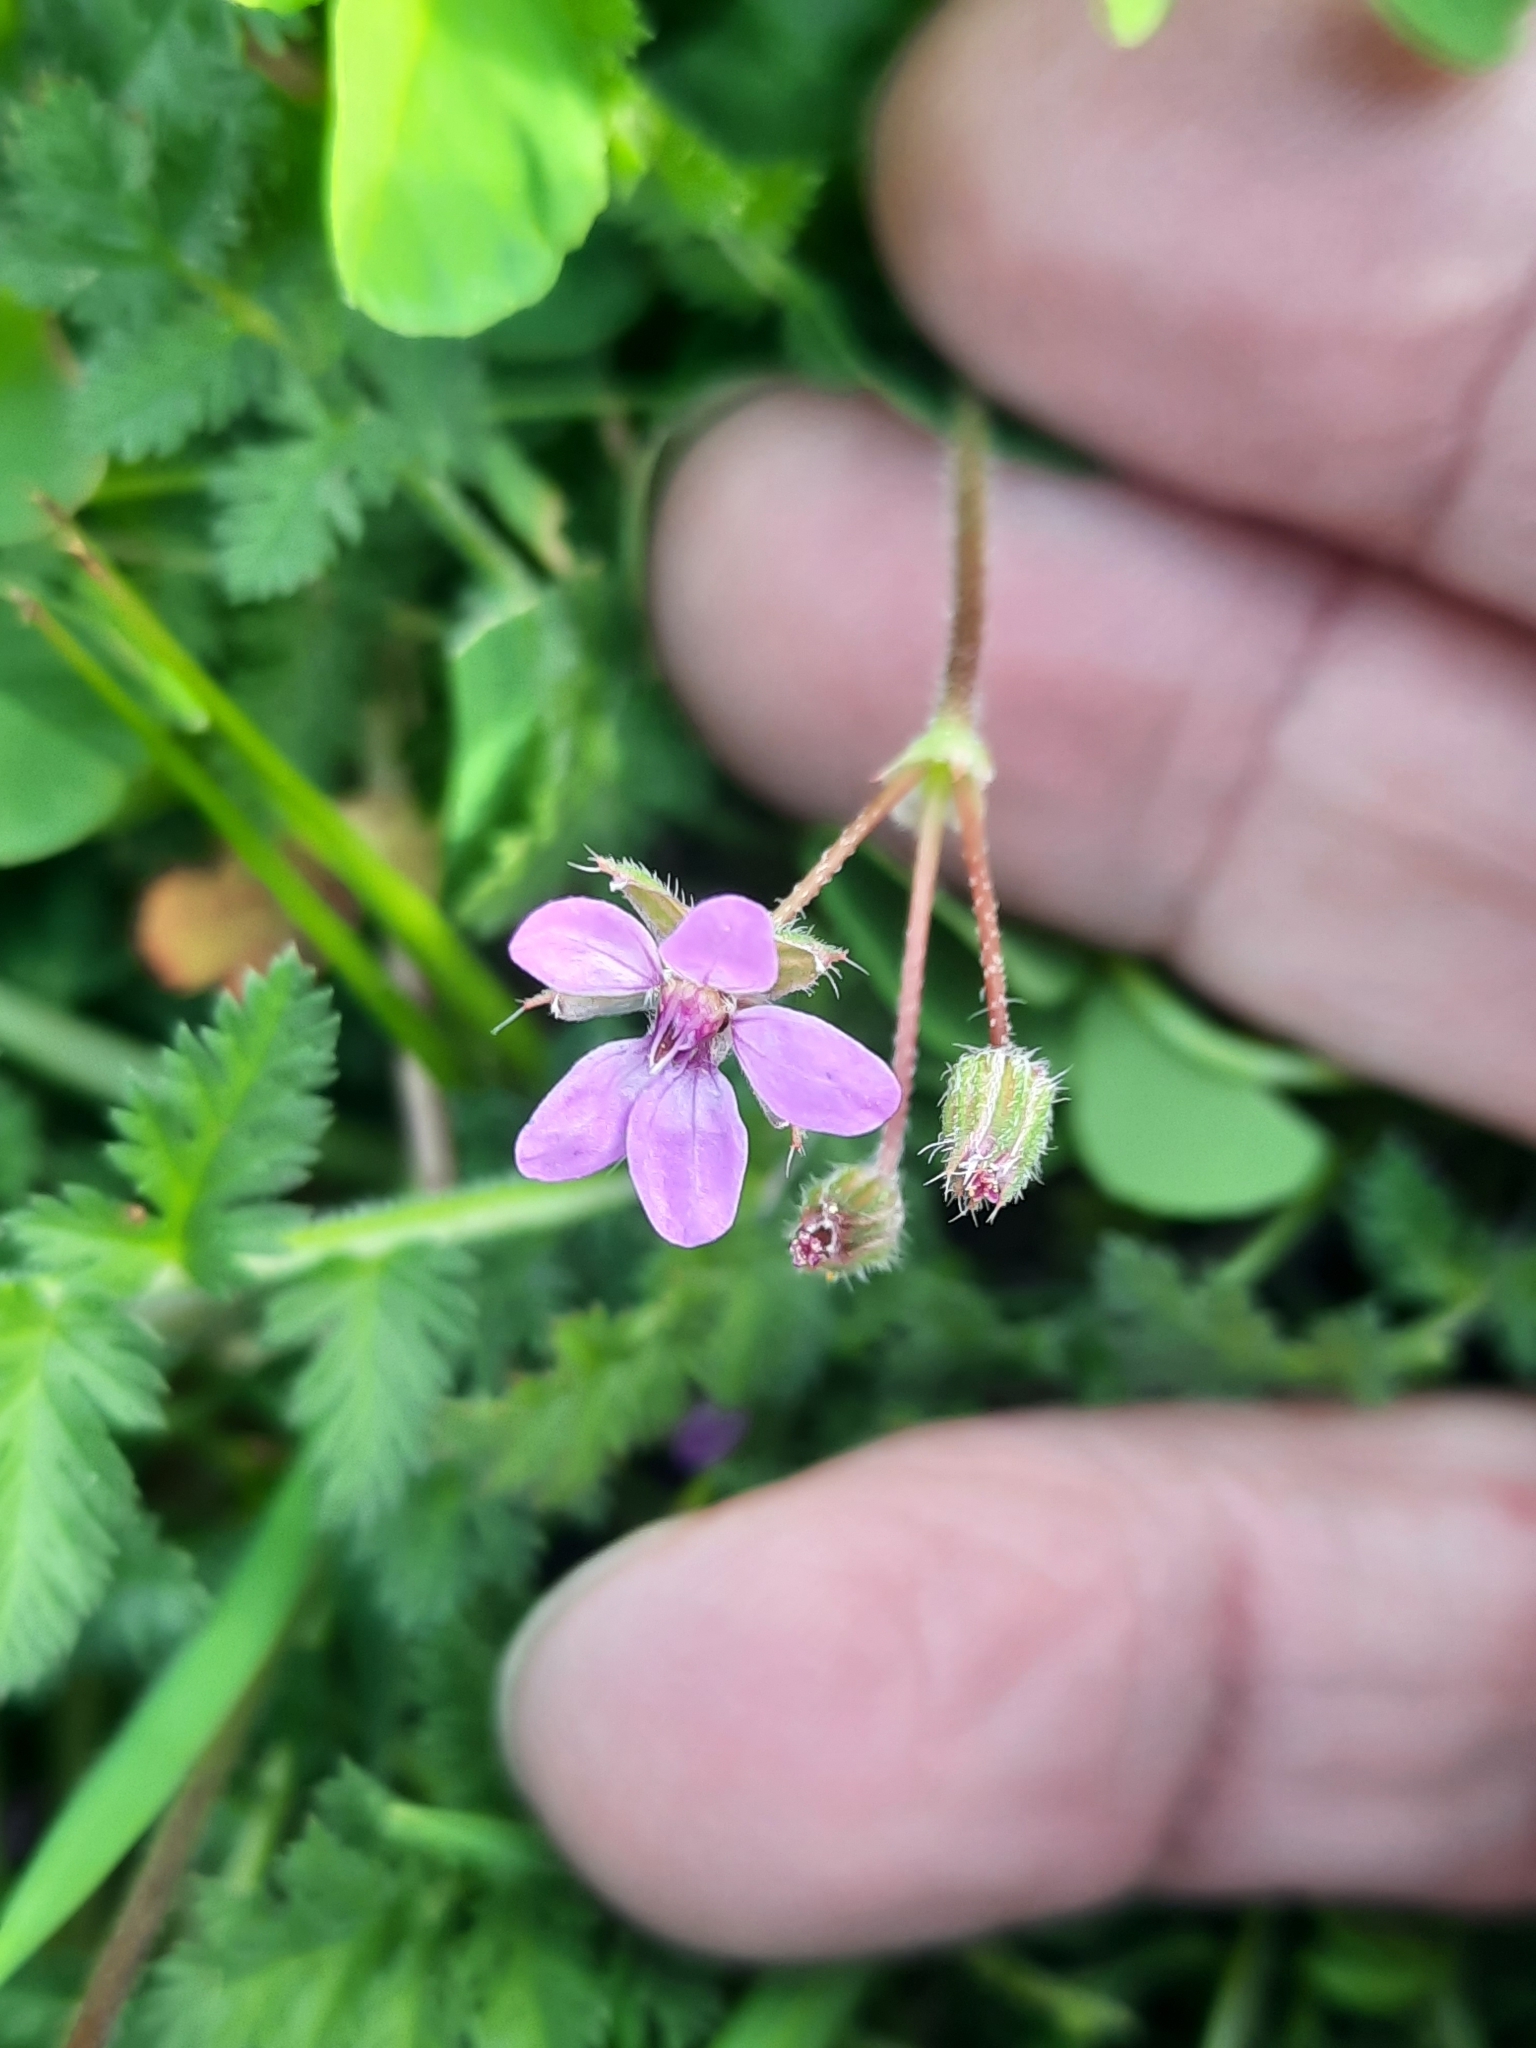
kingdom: Plantae
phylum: Tracheophyta
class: Magnoliopsida
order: Geraniales
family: Geraniaceae
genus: Erodium
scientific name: Erodium cicutarium
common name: Common stork's-bill
